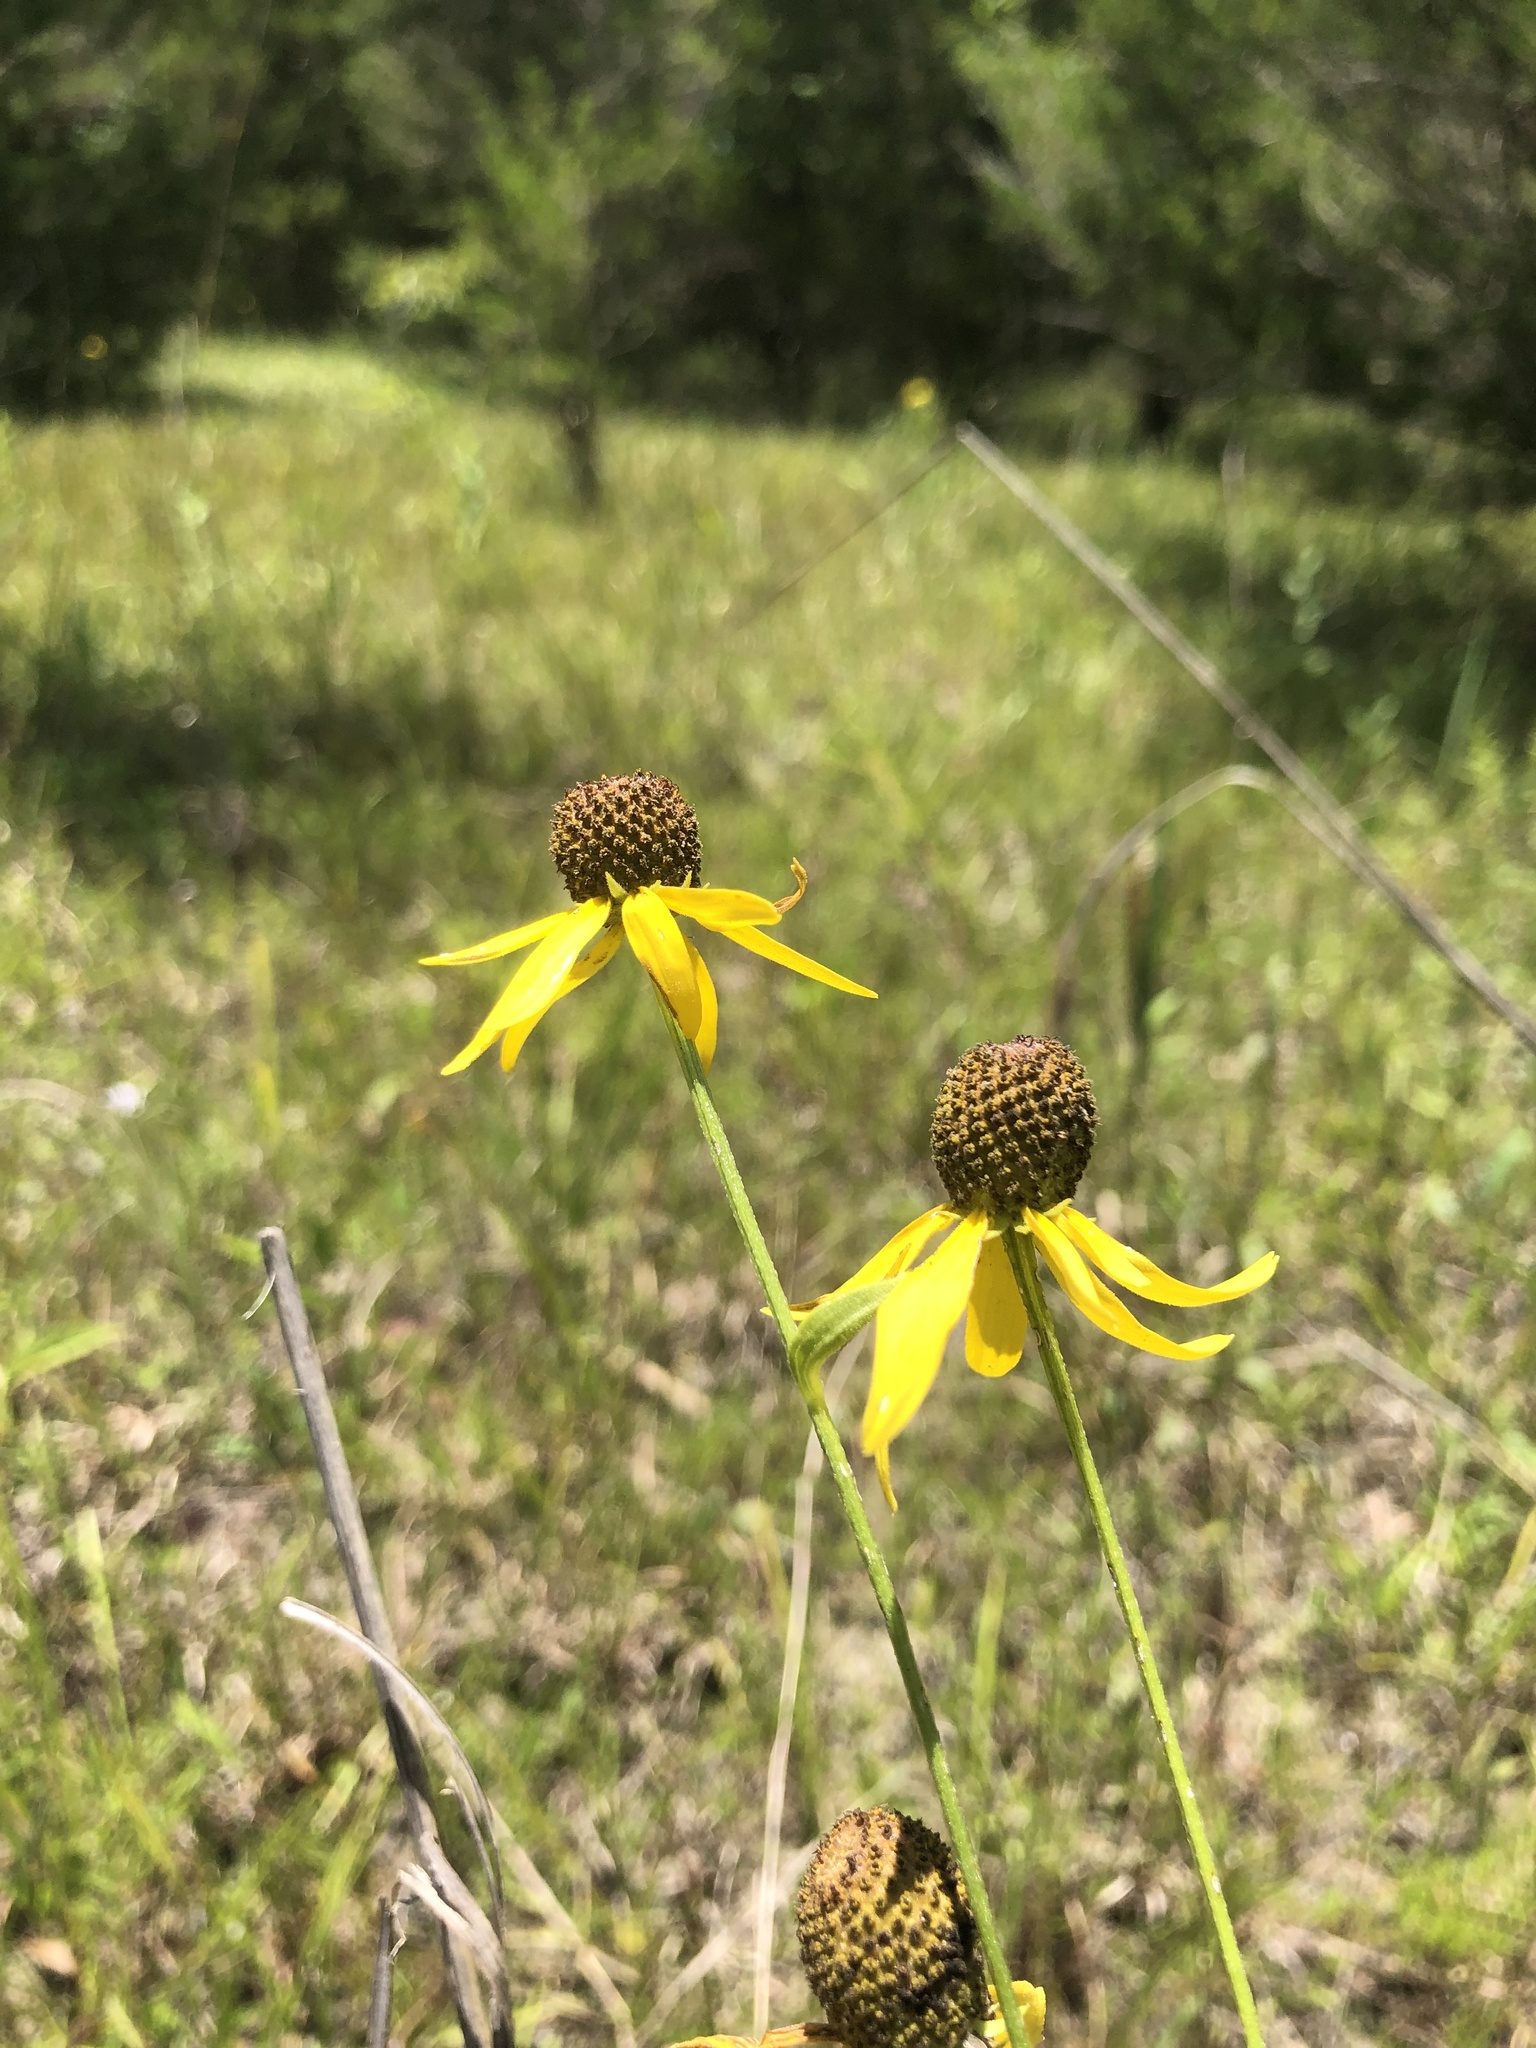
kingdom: Plantae
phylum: Tracheophyta
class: Magnoliopsida
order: Asterales
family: Asteraceae
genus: Ratibida
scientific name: Ratibida pinnata
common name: Drooping prairie-coneflower
